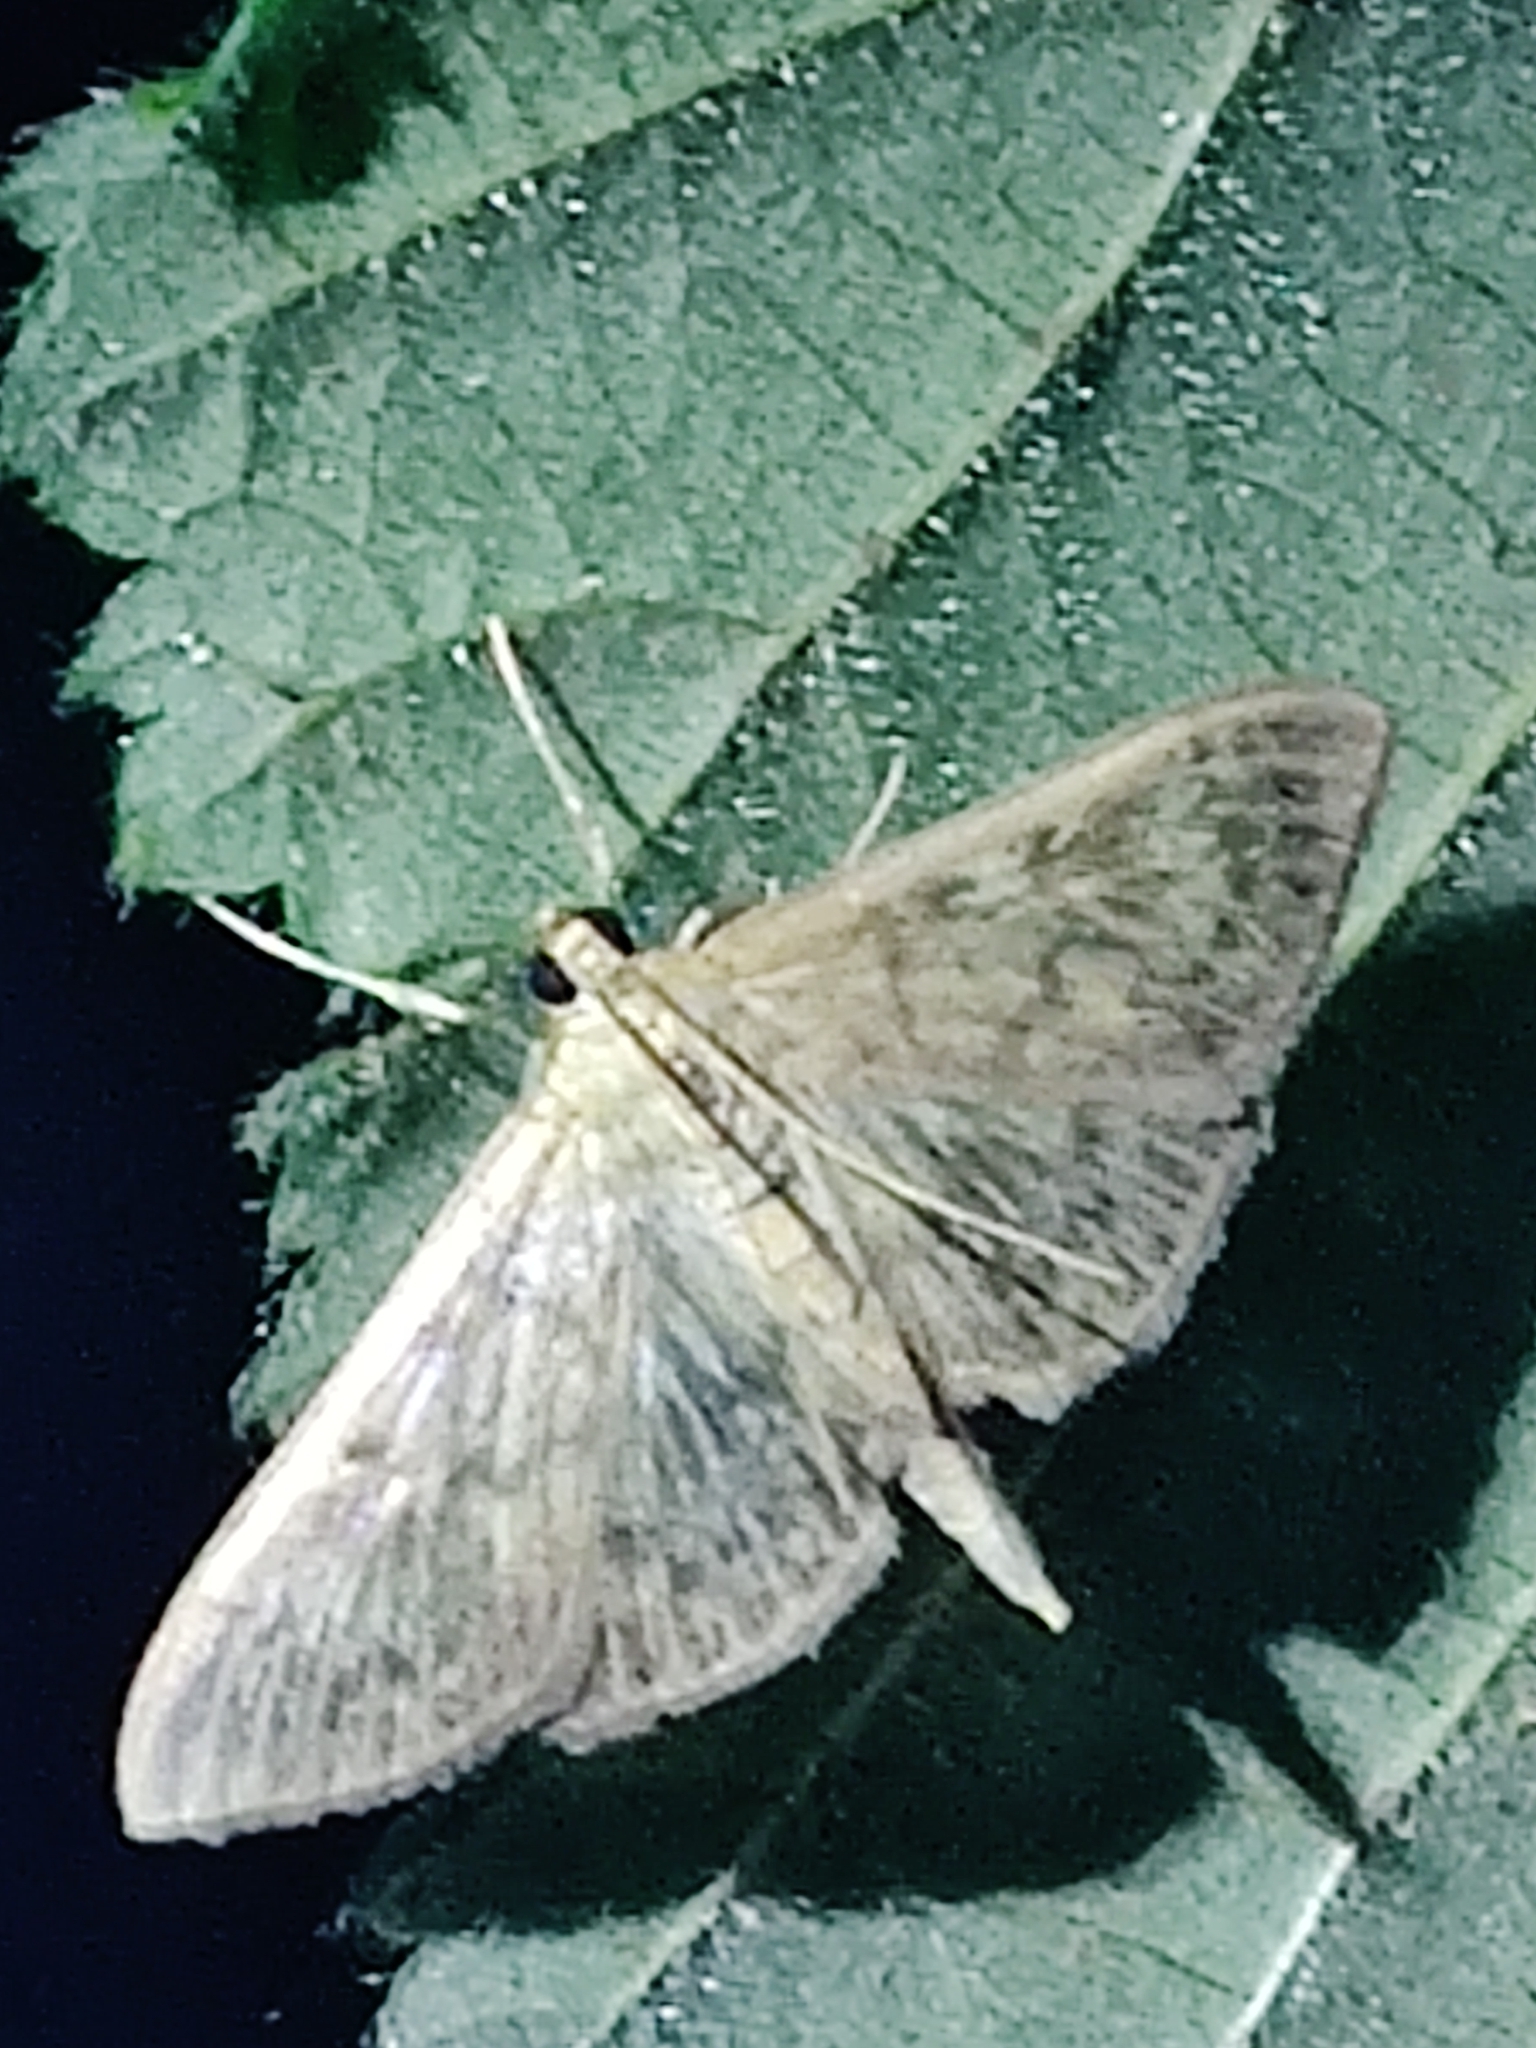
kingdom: Animalia
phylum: Arthropoda
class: Insecta
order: Lepidoptera
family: Crambidae
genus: Patania
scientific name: Patania ruralis
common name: Mother of pearl
